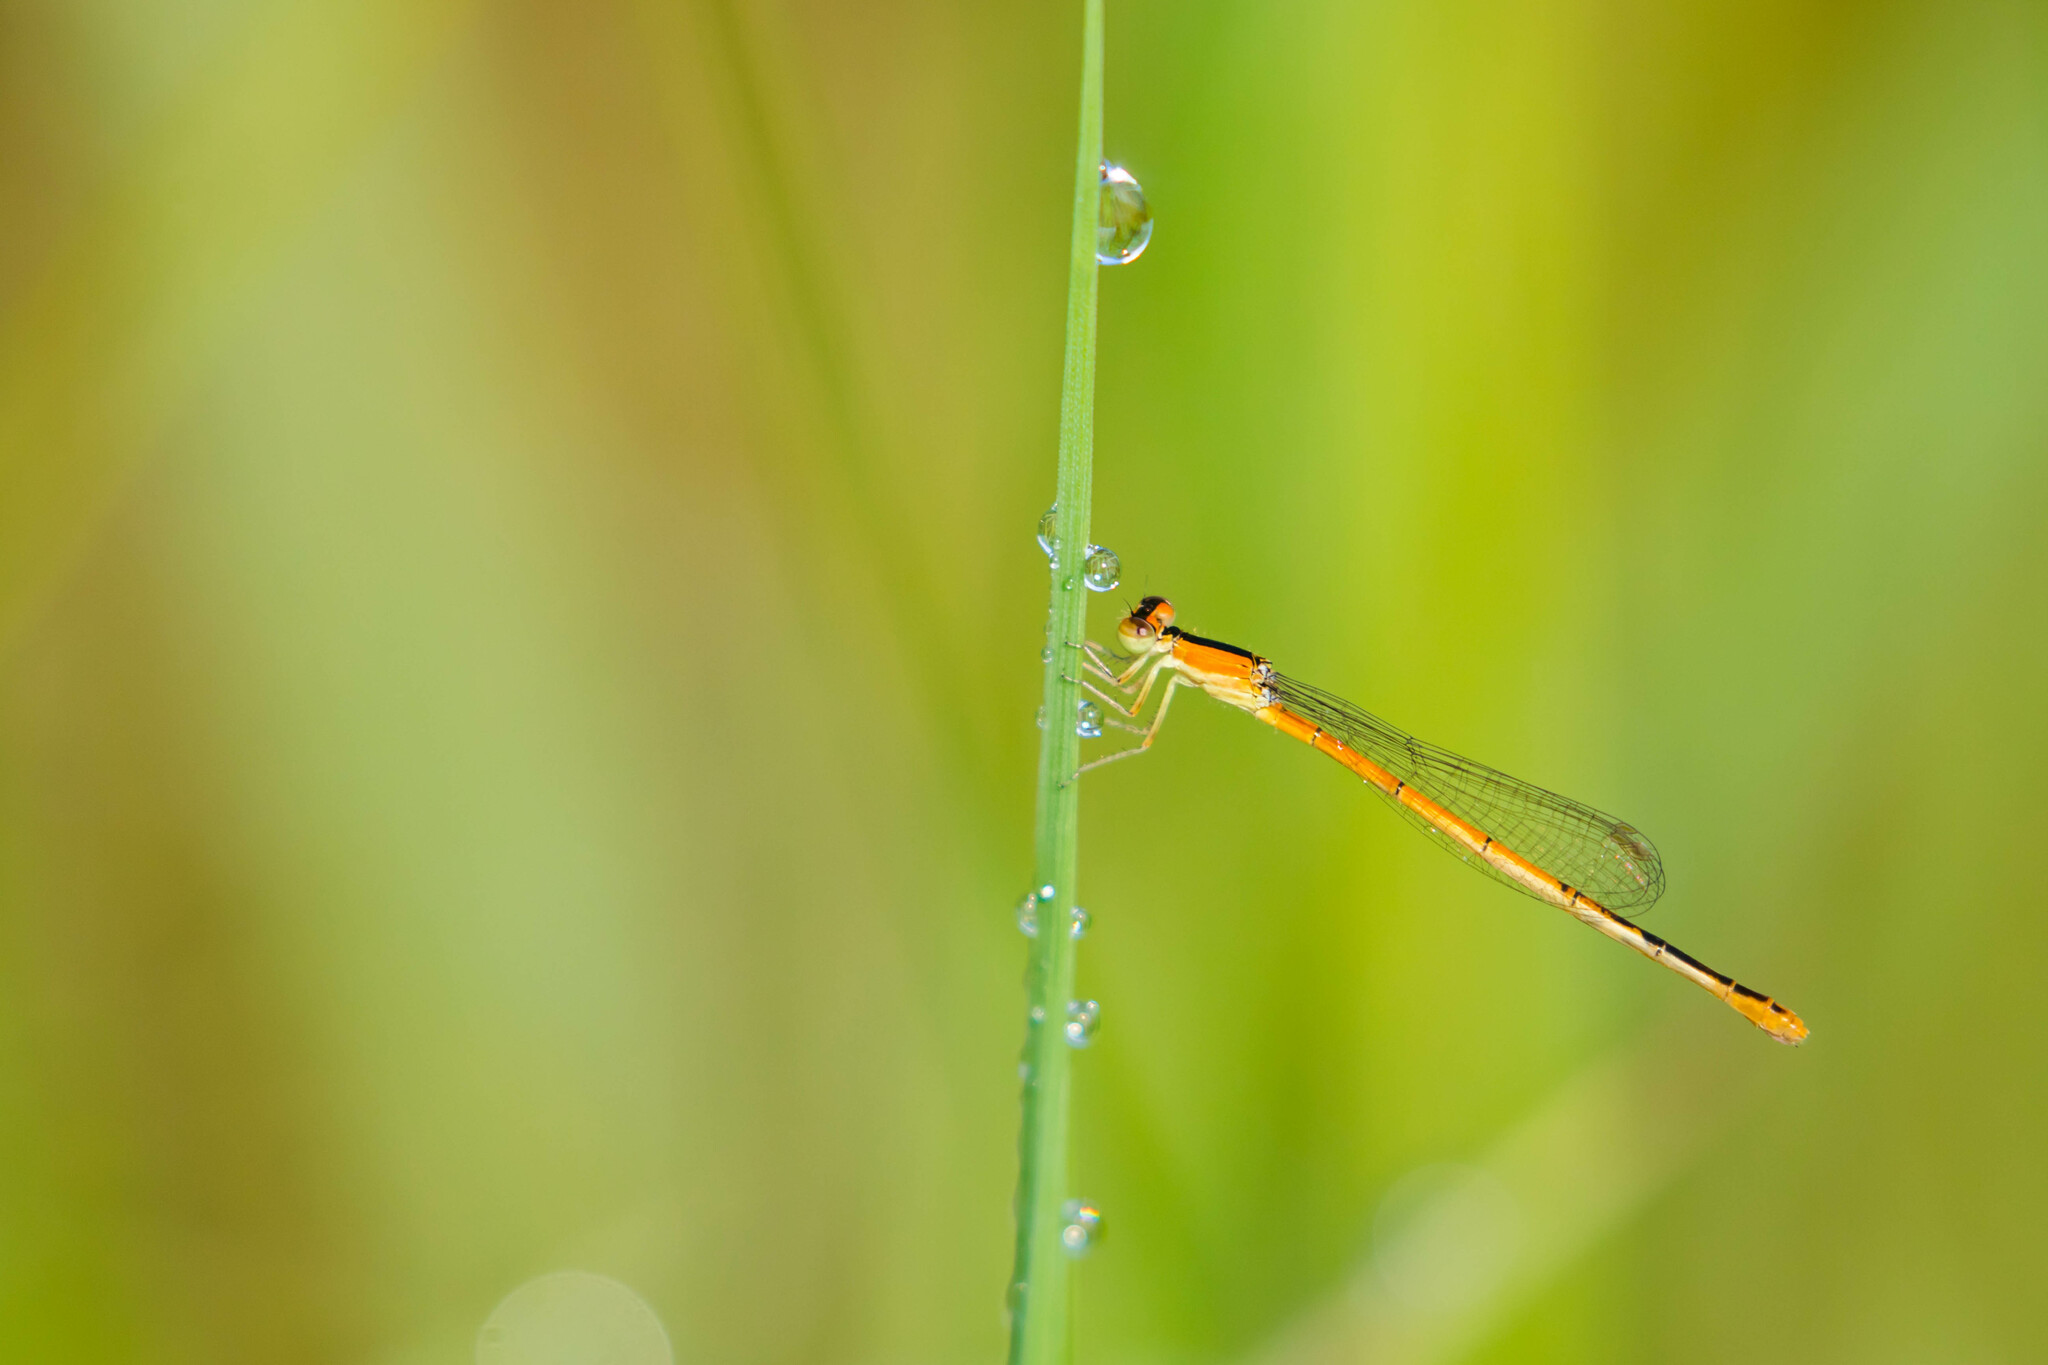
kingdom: Animalia
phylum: Arthropoda
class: Insecta
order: Odonata
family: Coenagrionidae
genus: Ischnura
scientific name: Ischnura hastata
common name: Citrine forktail
